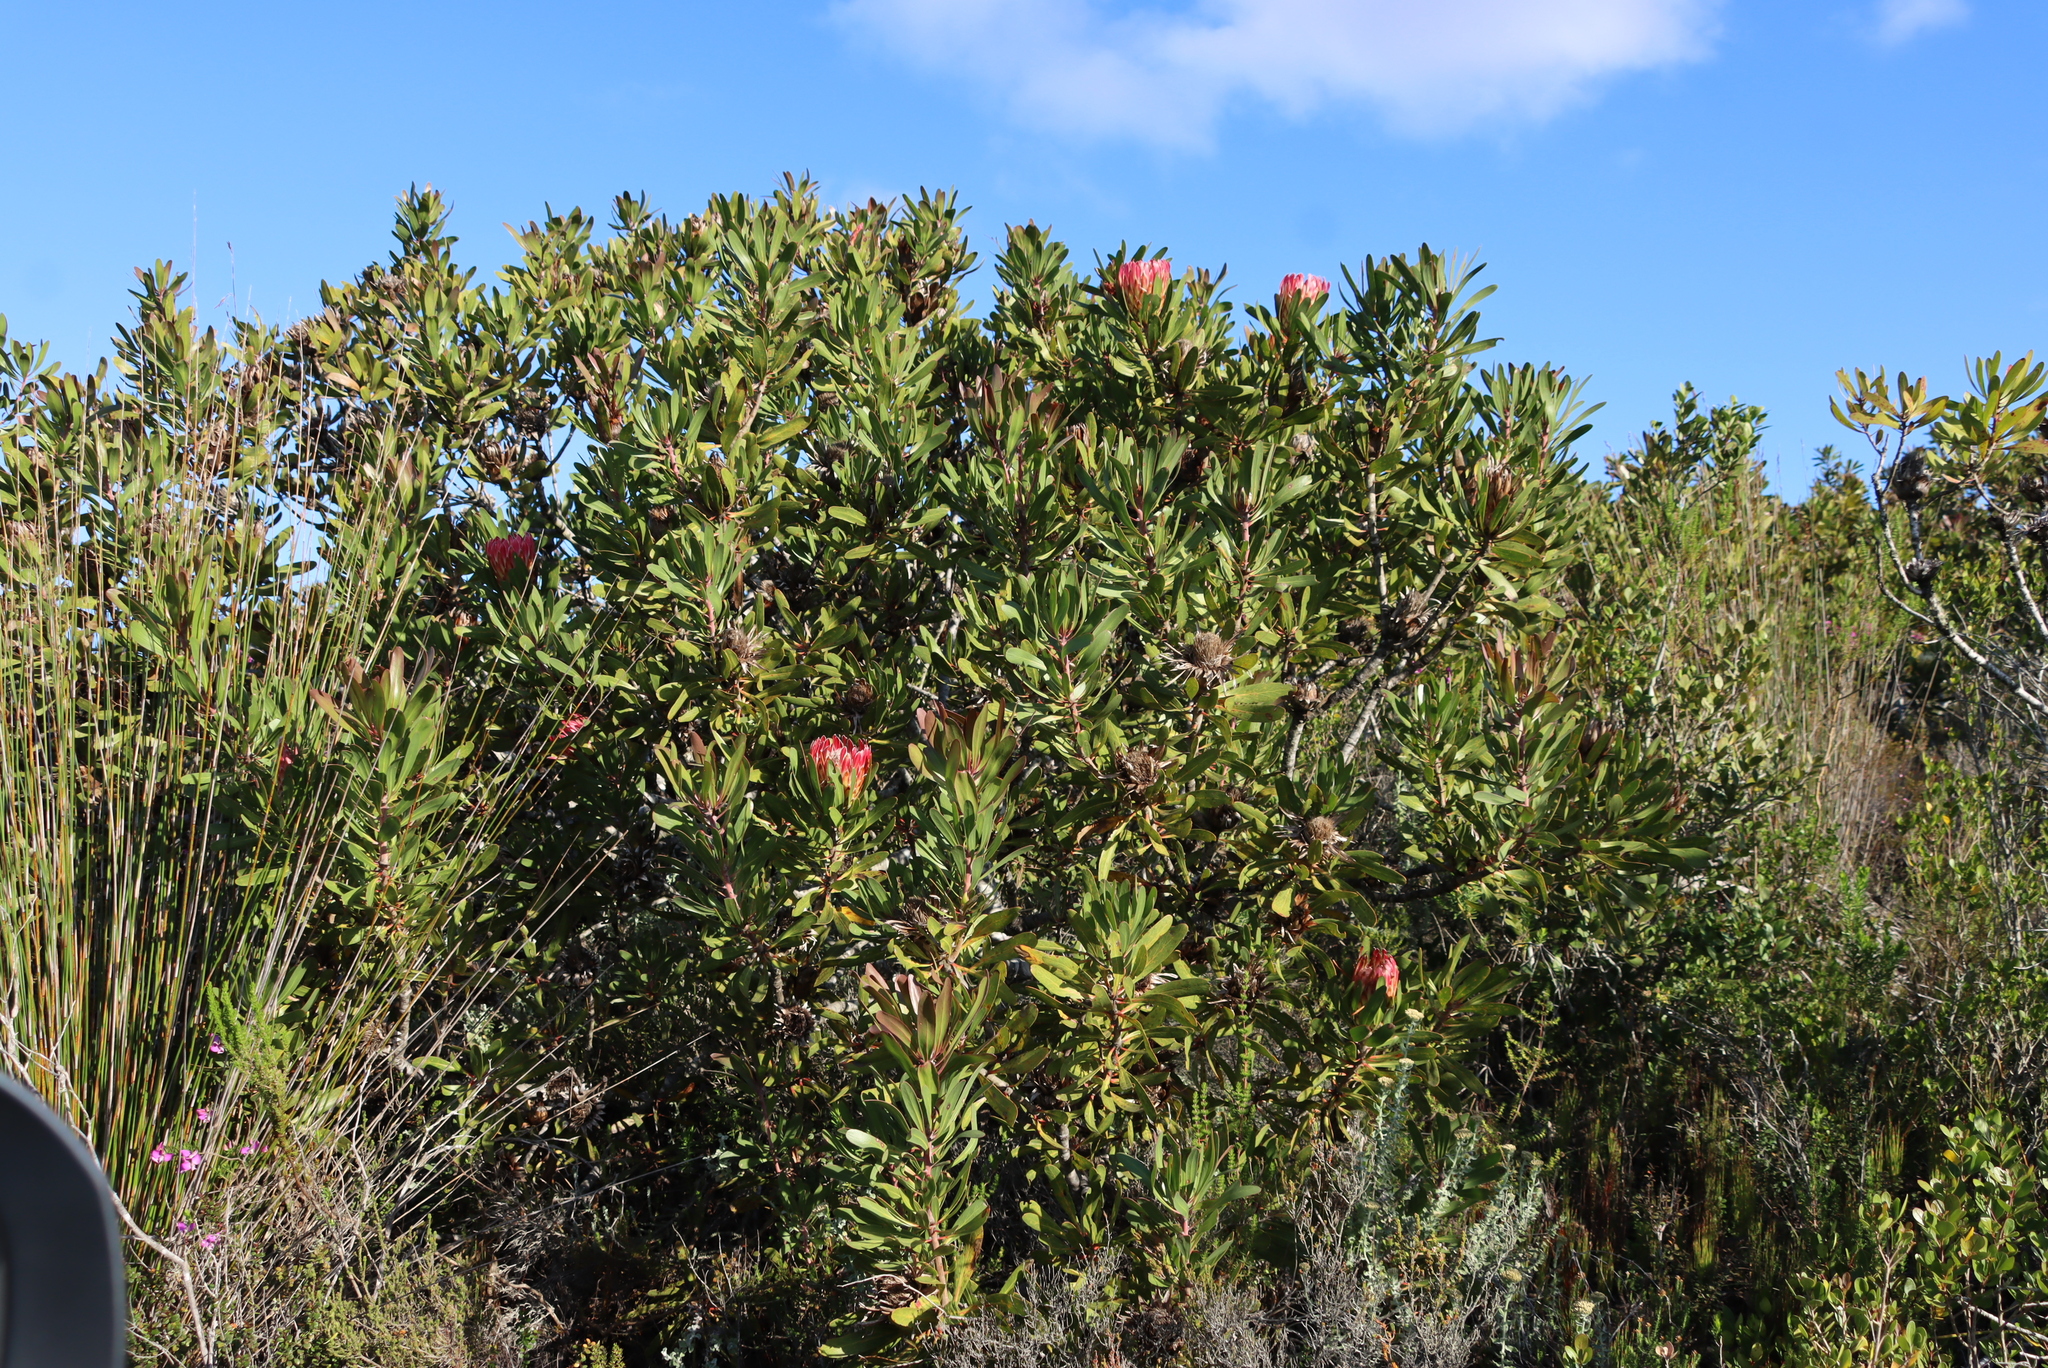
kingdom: Plantae
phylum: Tracheophyta
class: Magnoliopsida
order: Proteales
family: Proteaceae
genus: Protea
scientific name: Protea obtusifolia
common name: Bredasdorp sugarbush
